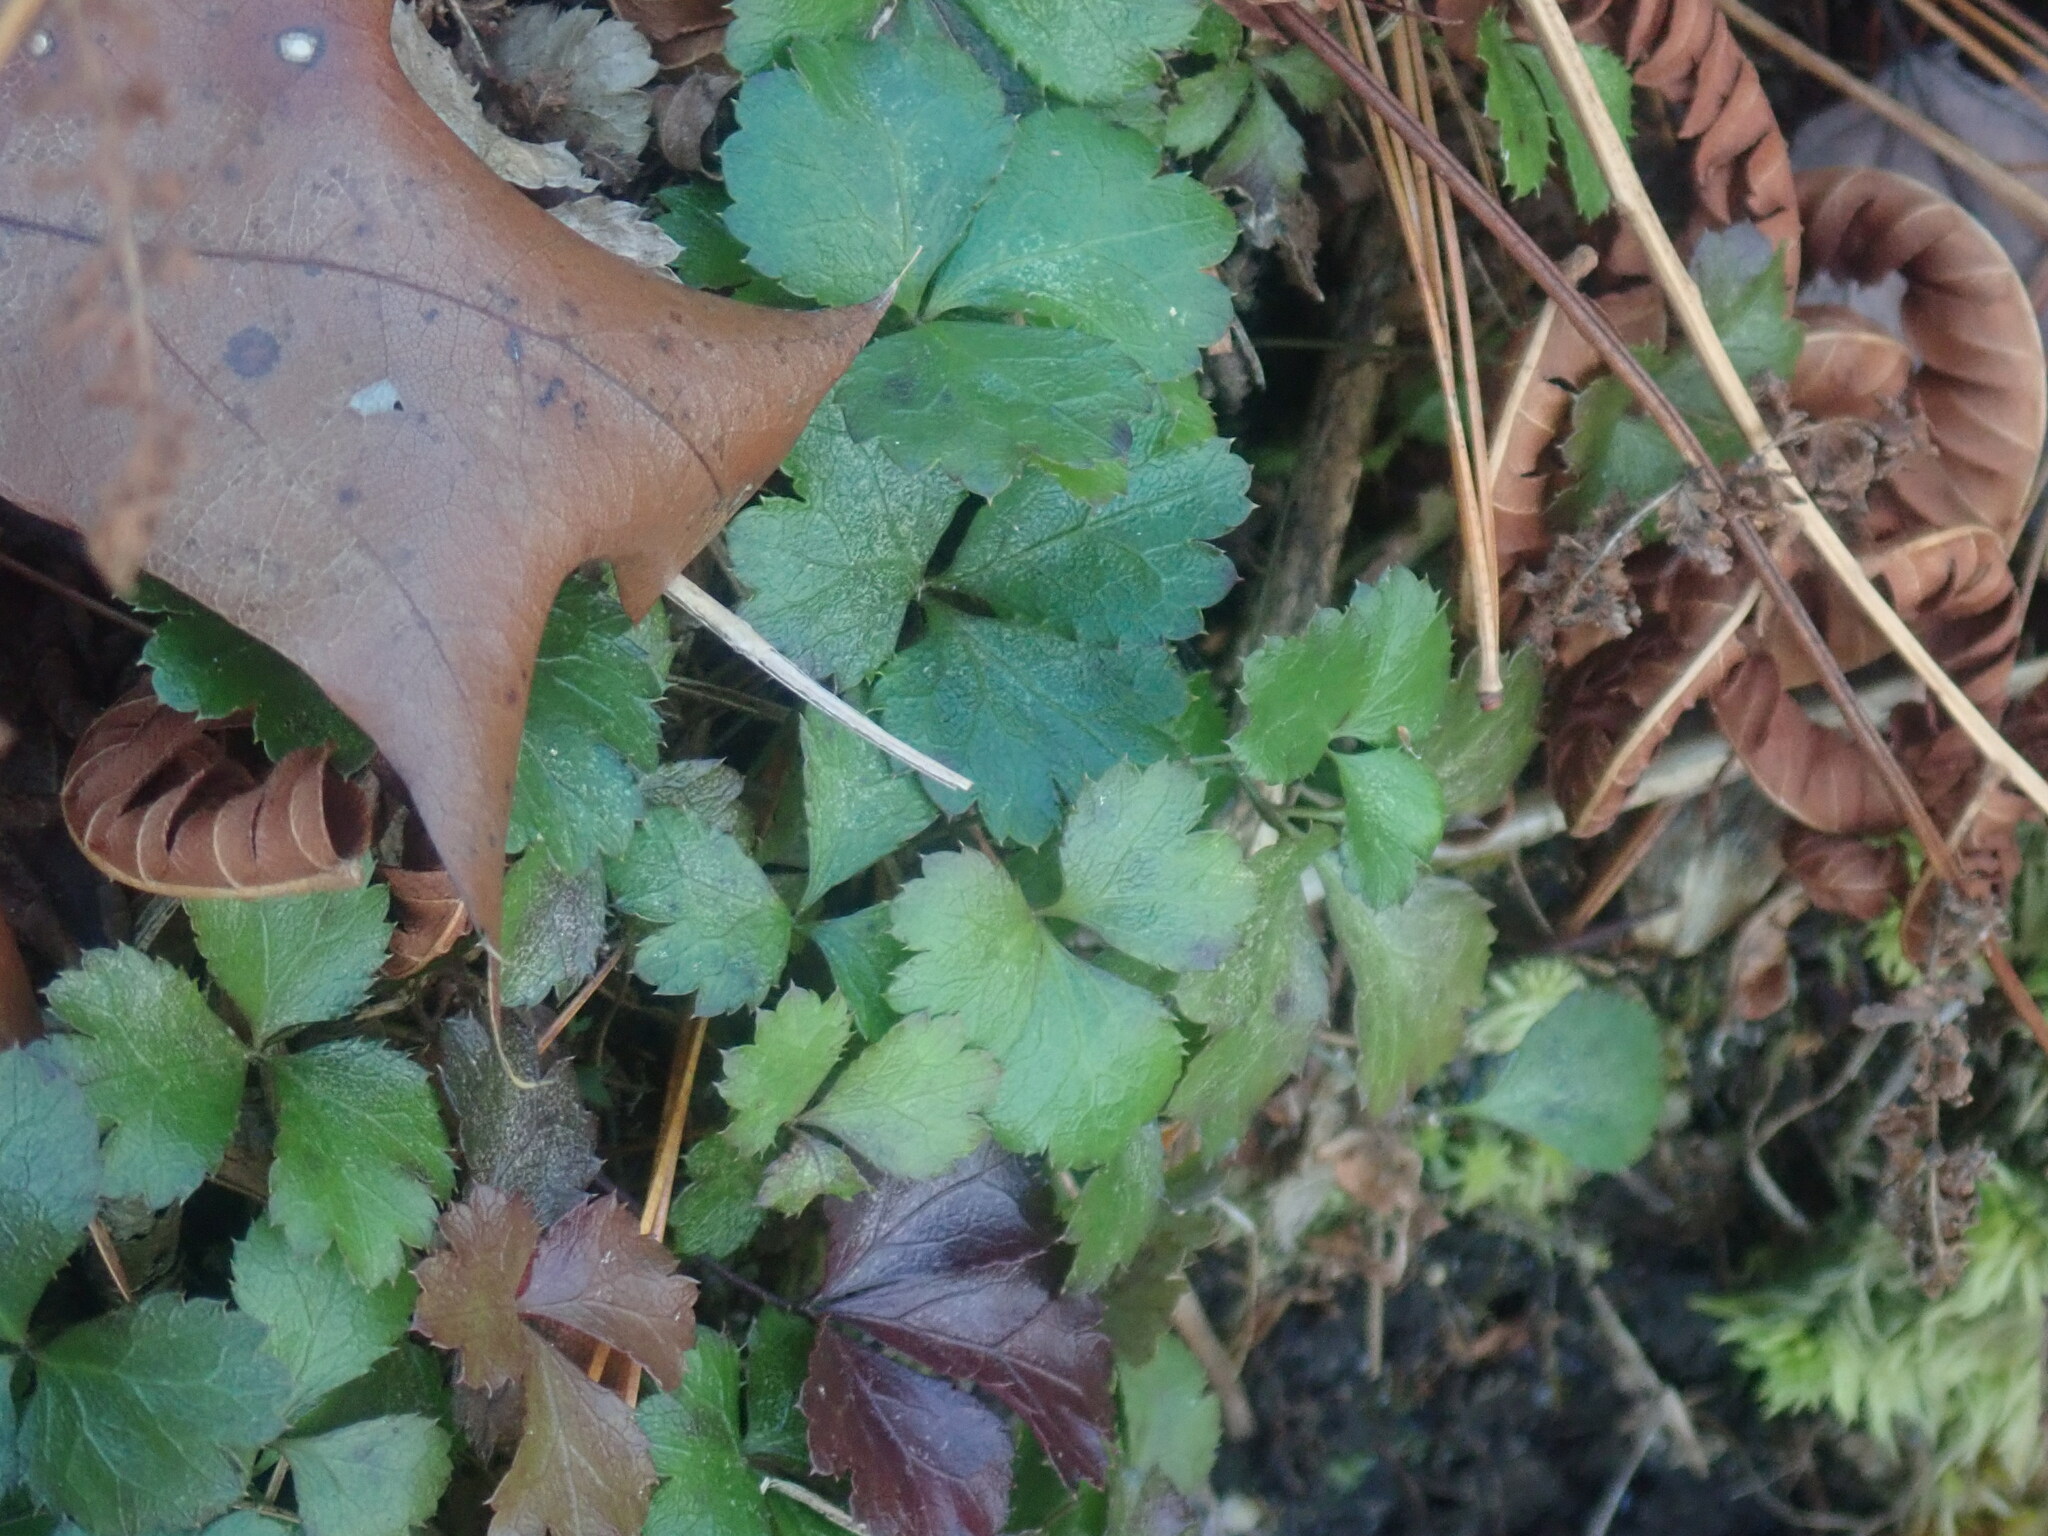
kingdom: Plantae
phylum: Tracheophyta
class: Magnoliopsida
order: Ranunculales
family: Ranunculaceae
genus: Coptis
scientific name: Coptis trifolia
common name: Canker-root
